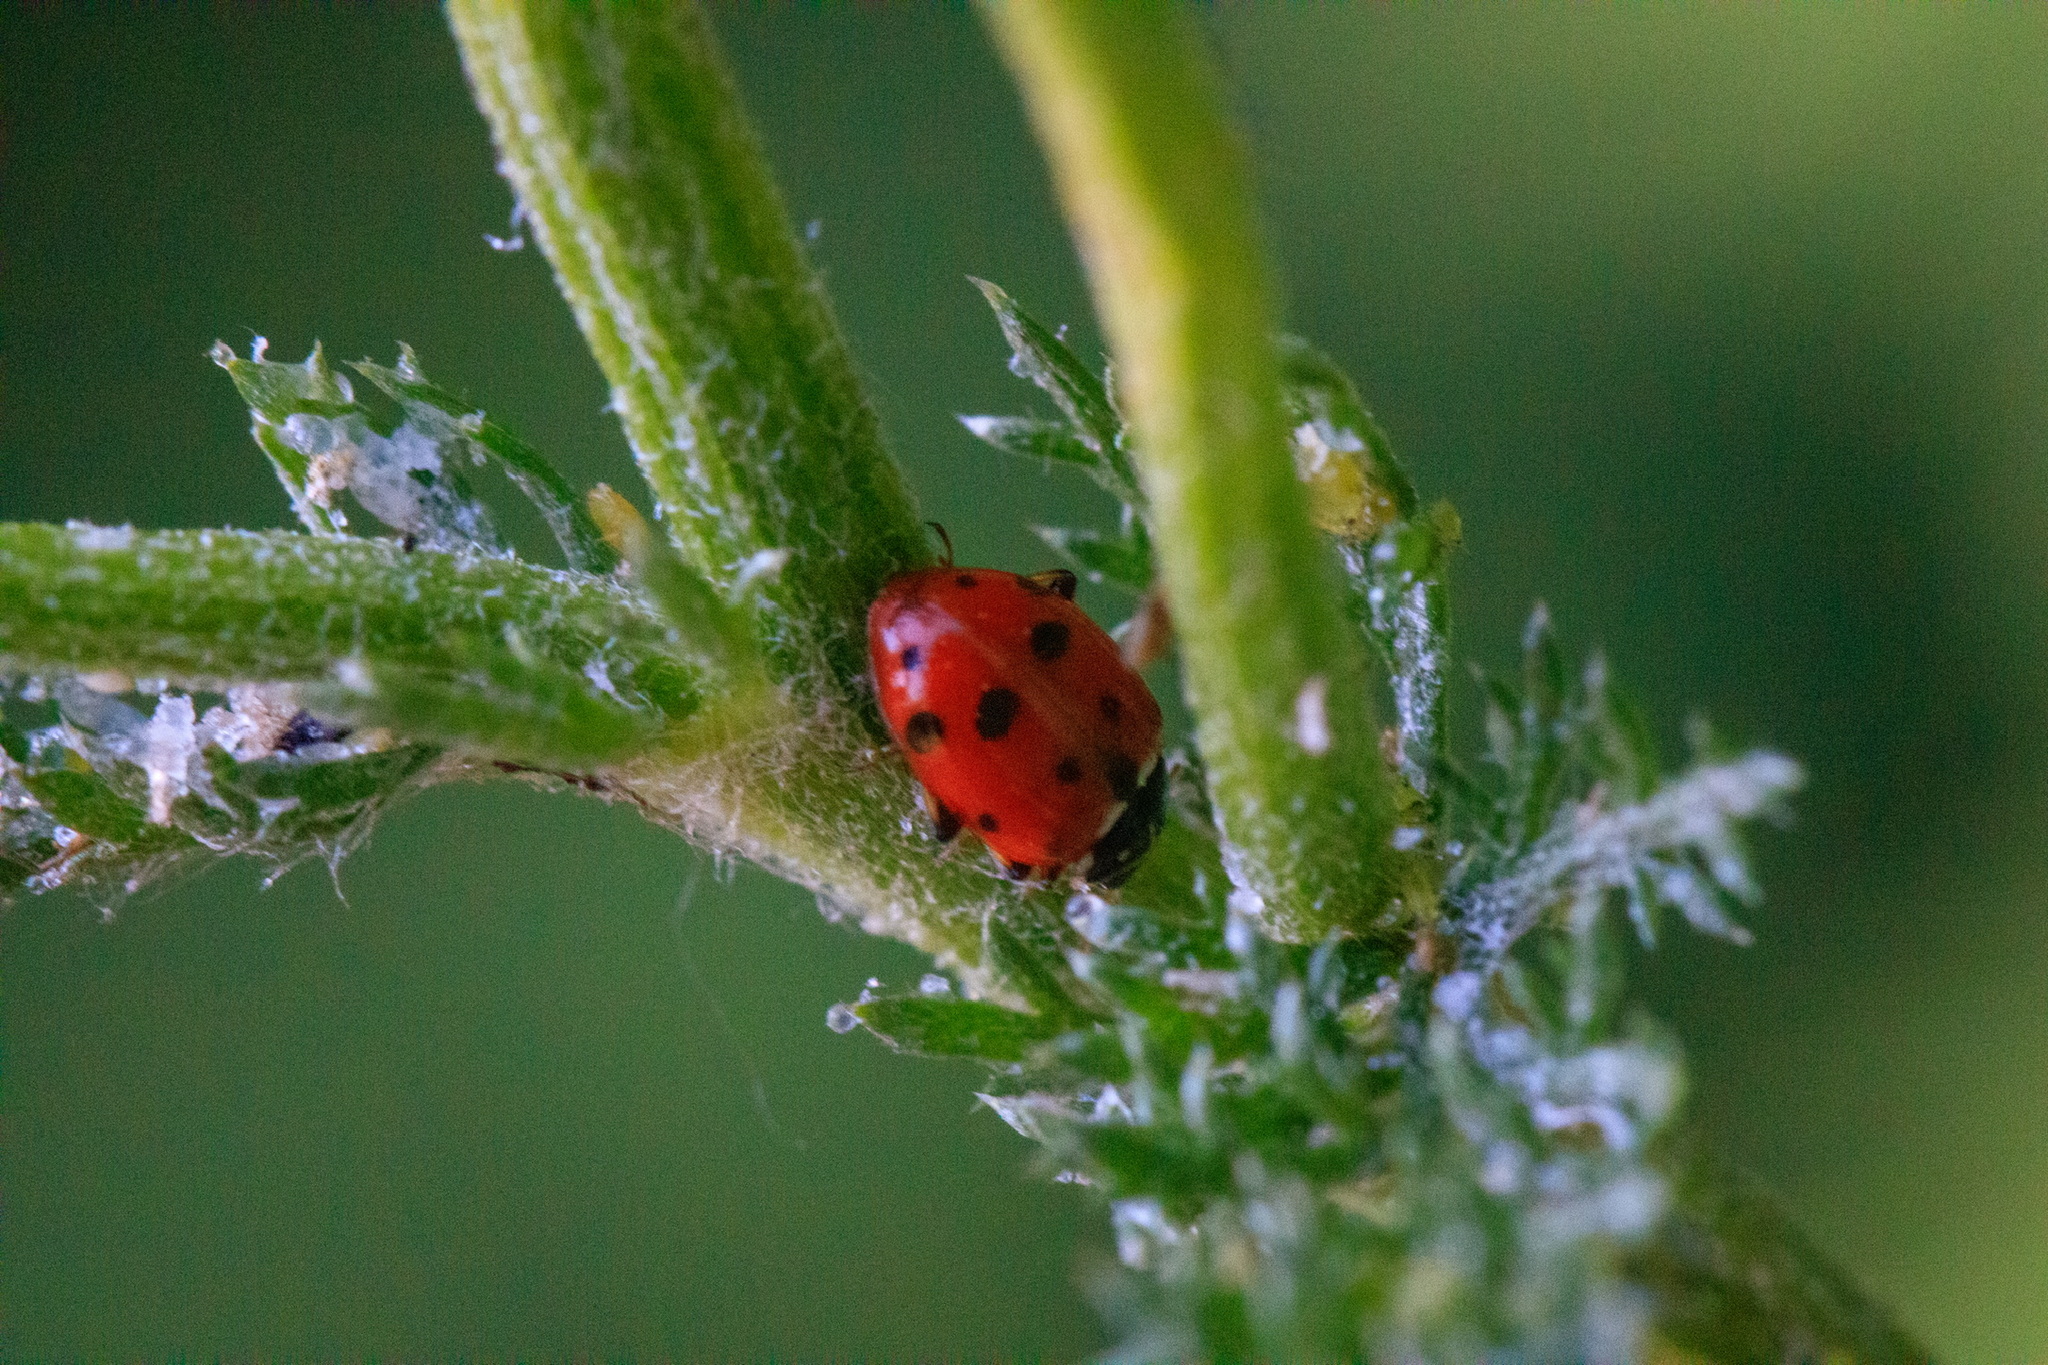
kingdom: Animalia
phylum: Arthropoda
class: Insecta
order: Coleoptera
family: Coccinellidae
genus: Hippodamia
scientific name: Hippodamia variegata
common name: Ladybird beetle
